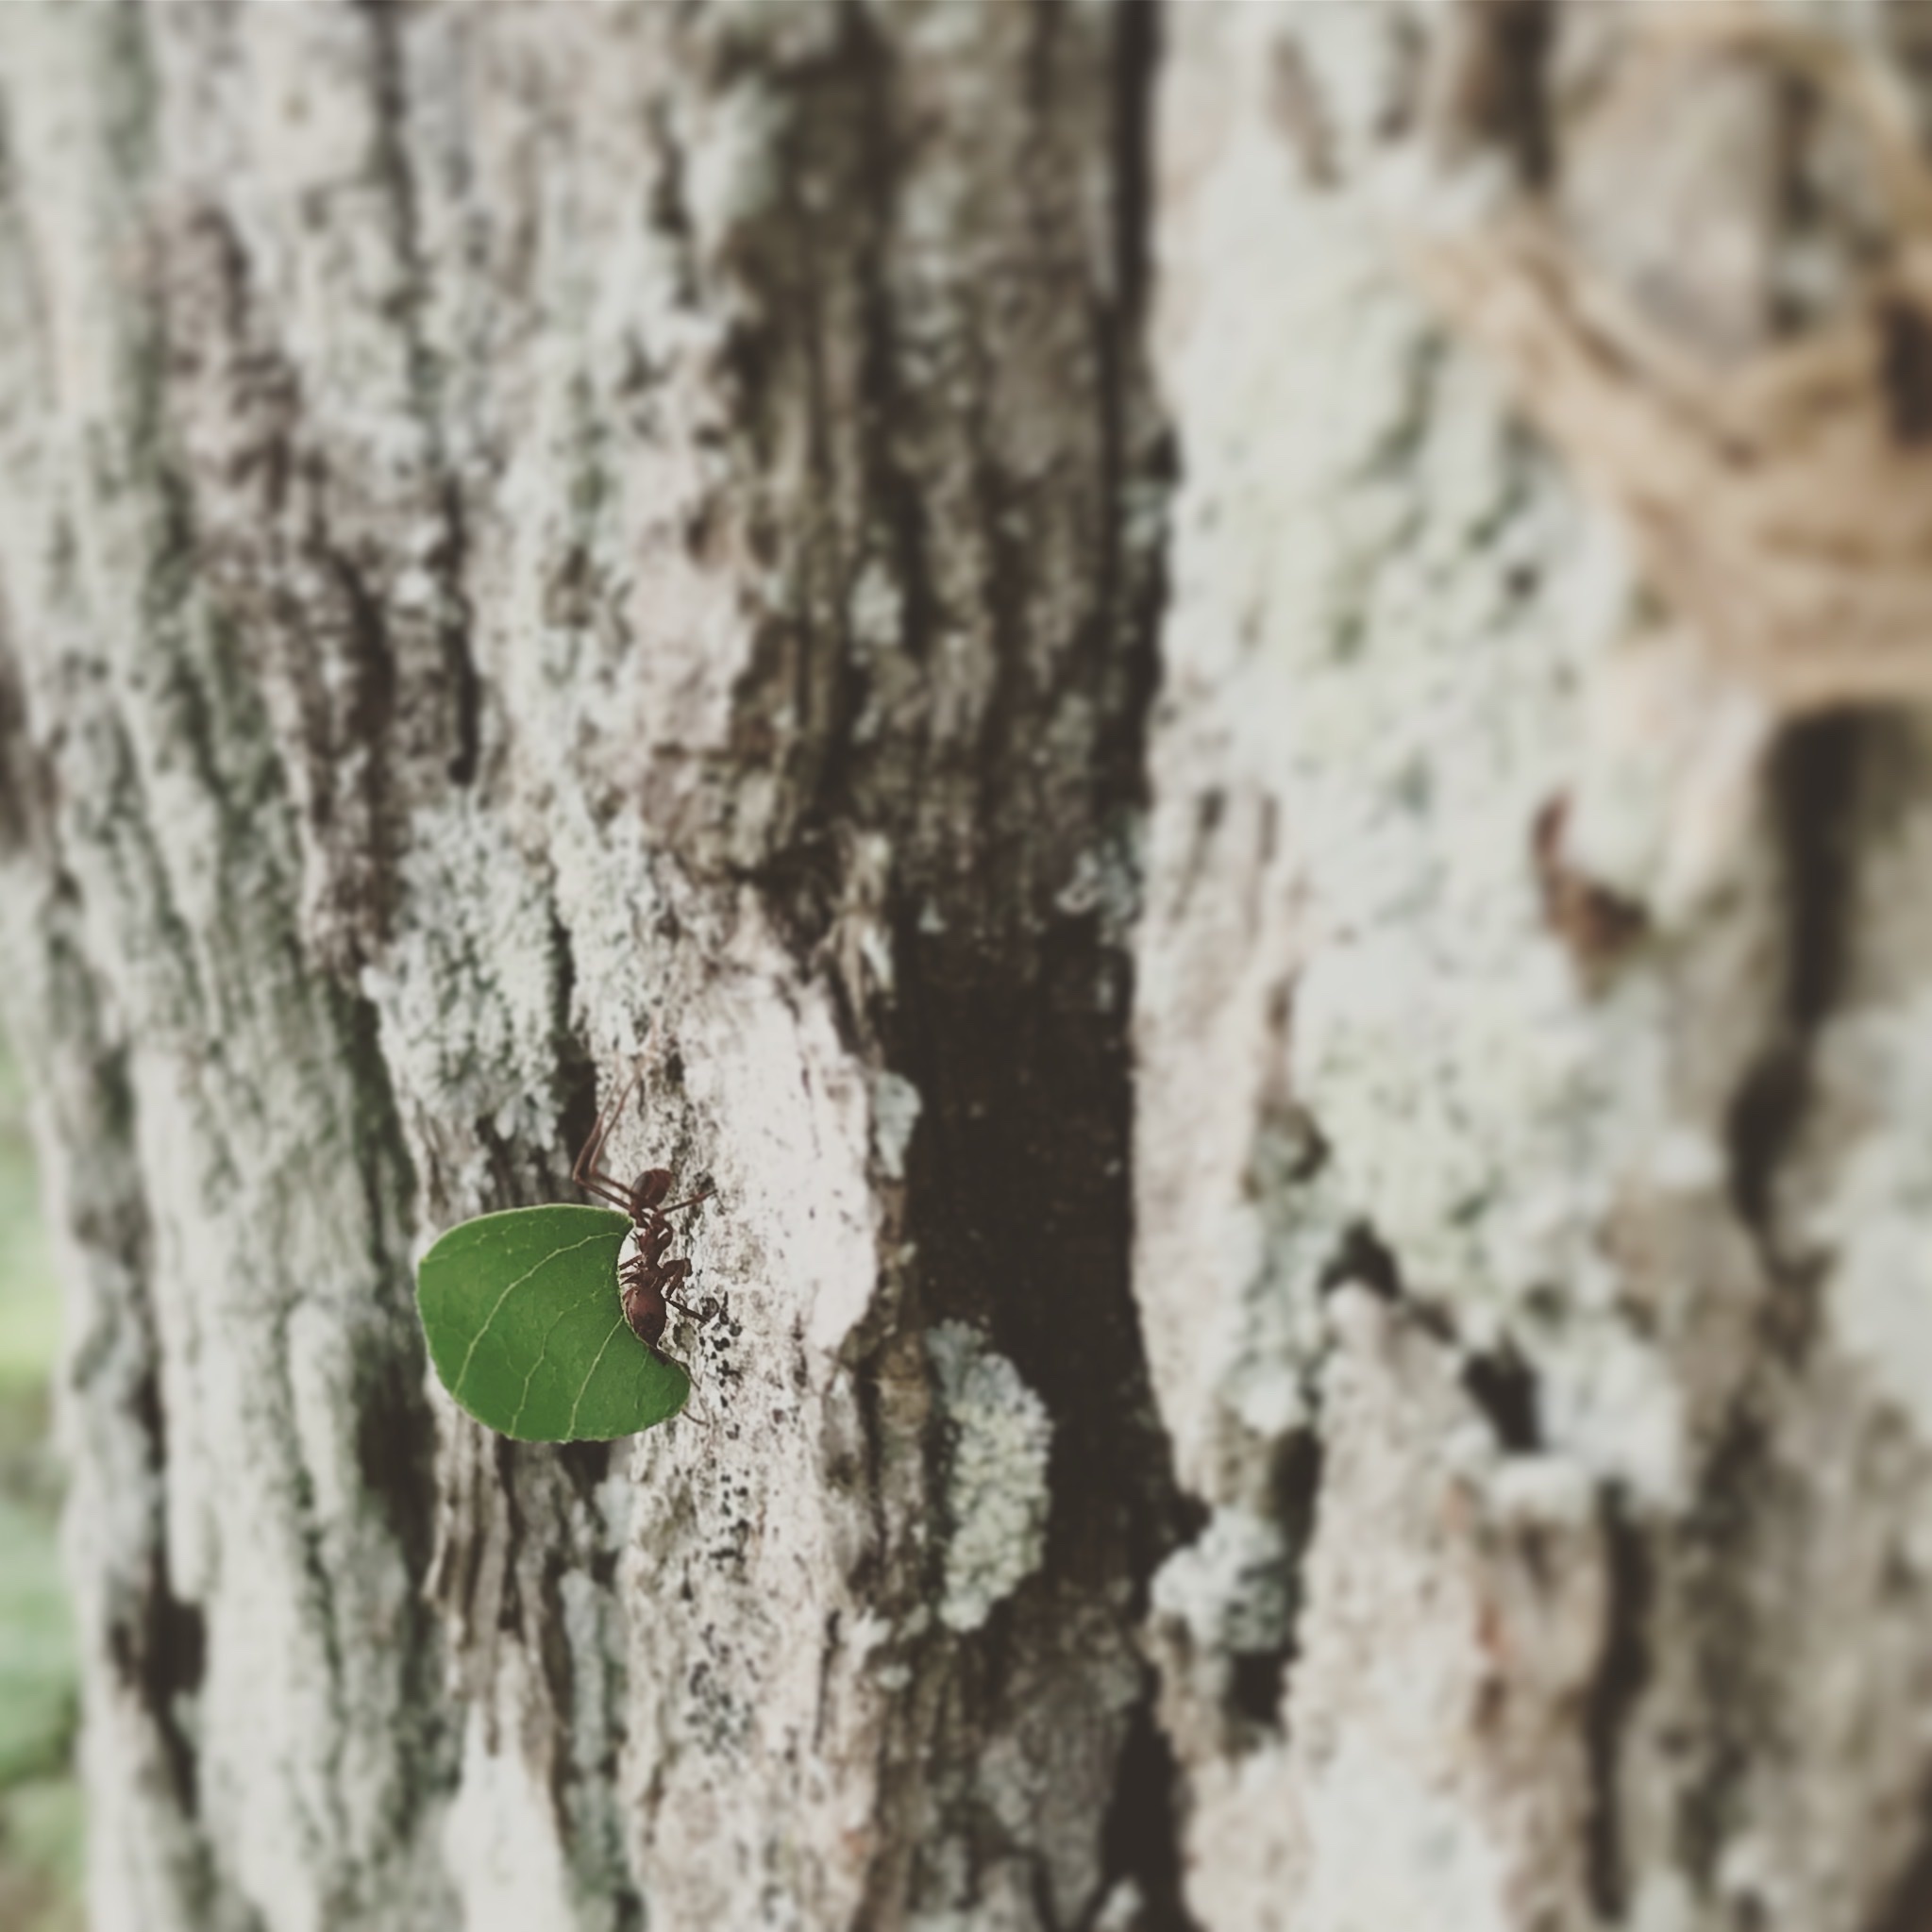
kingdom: Animalia
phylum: Arthropoda
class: Insecta
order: Hymenoptera
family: Formicidae
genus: Atta
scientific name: Atta texana
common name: Texas leafcutting ant
